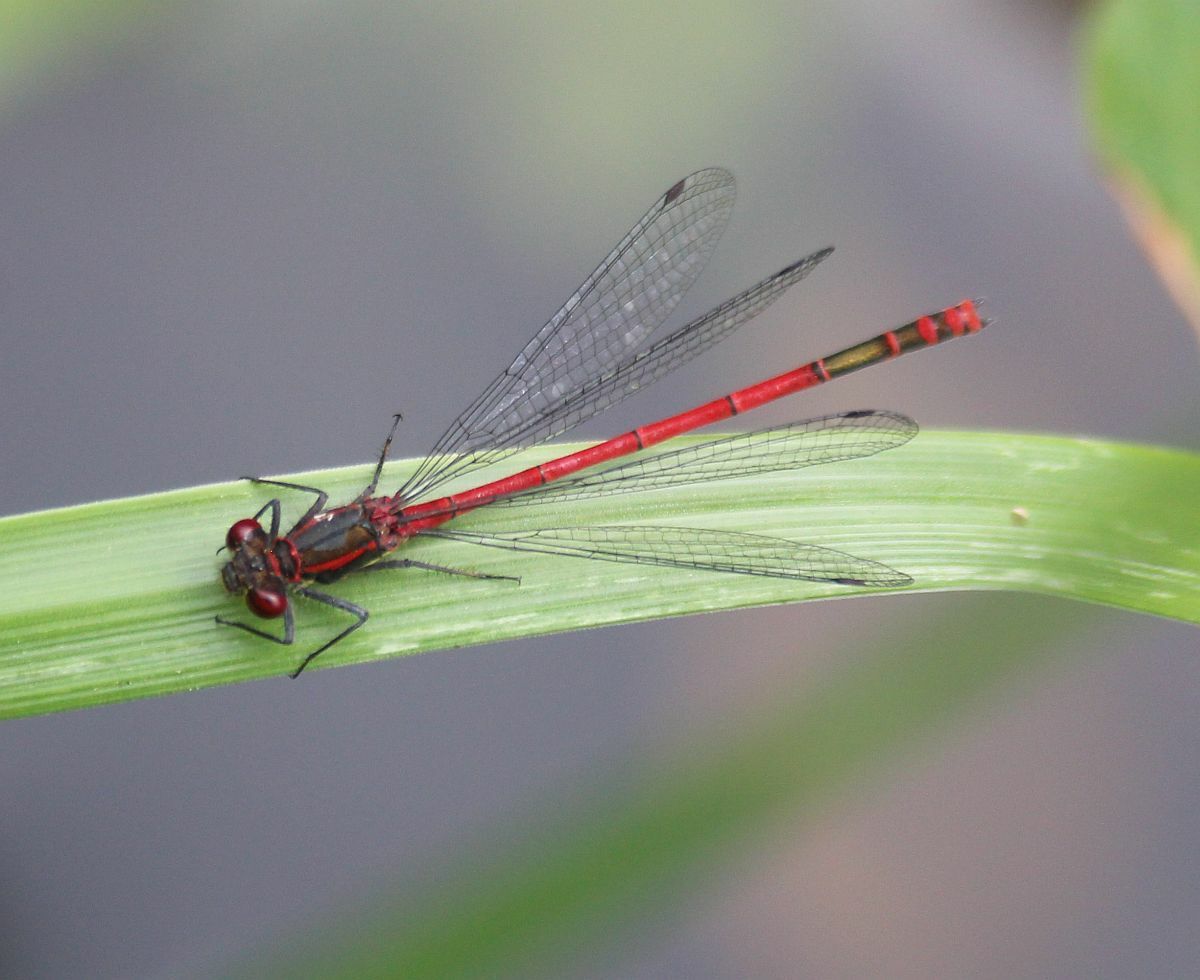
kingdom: Animalia
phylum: Arthropoda
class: Insecta
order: Odonata
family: Coenagrionidae
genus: Pyrrhosoma
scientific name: Pyrrhosoma nymphula
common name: Large red damsel
